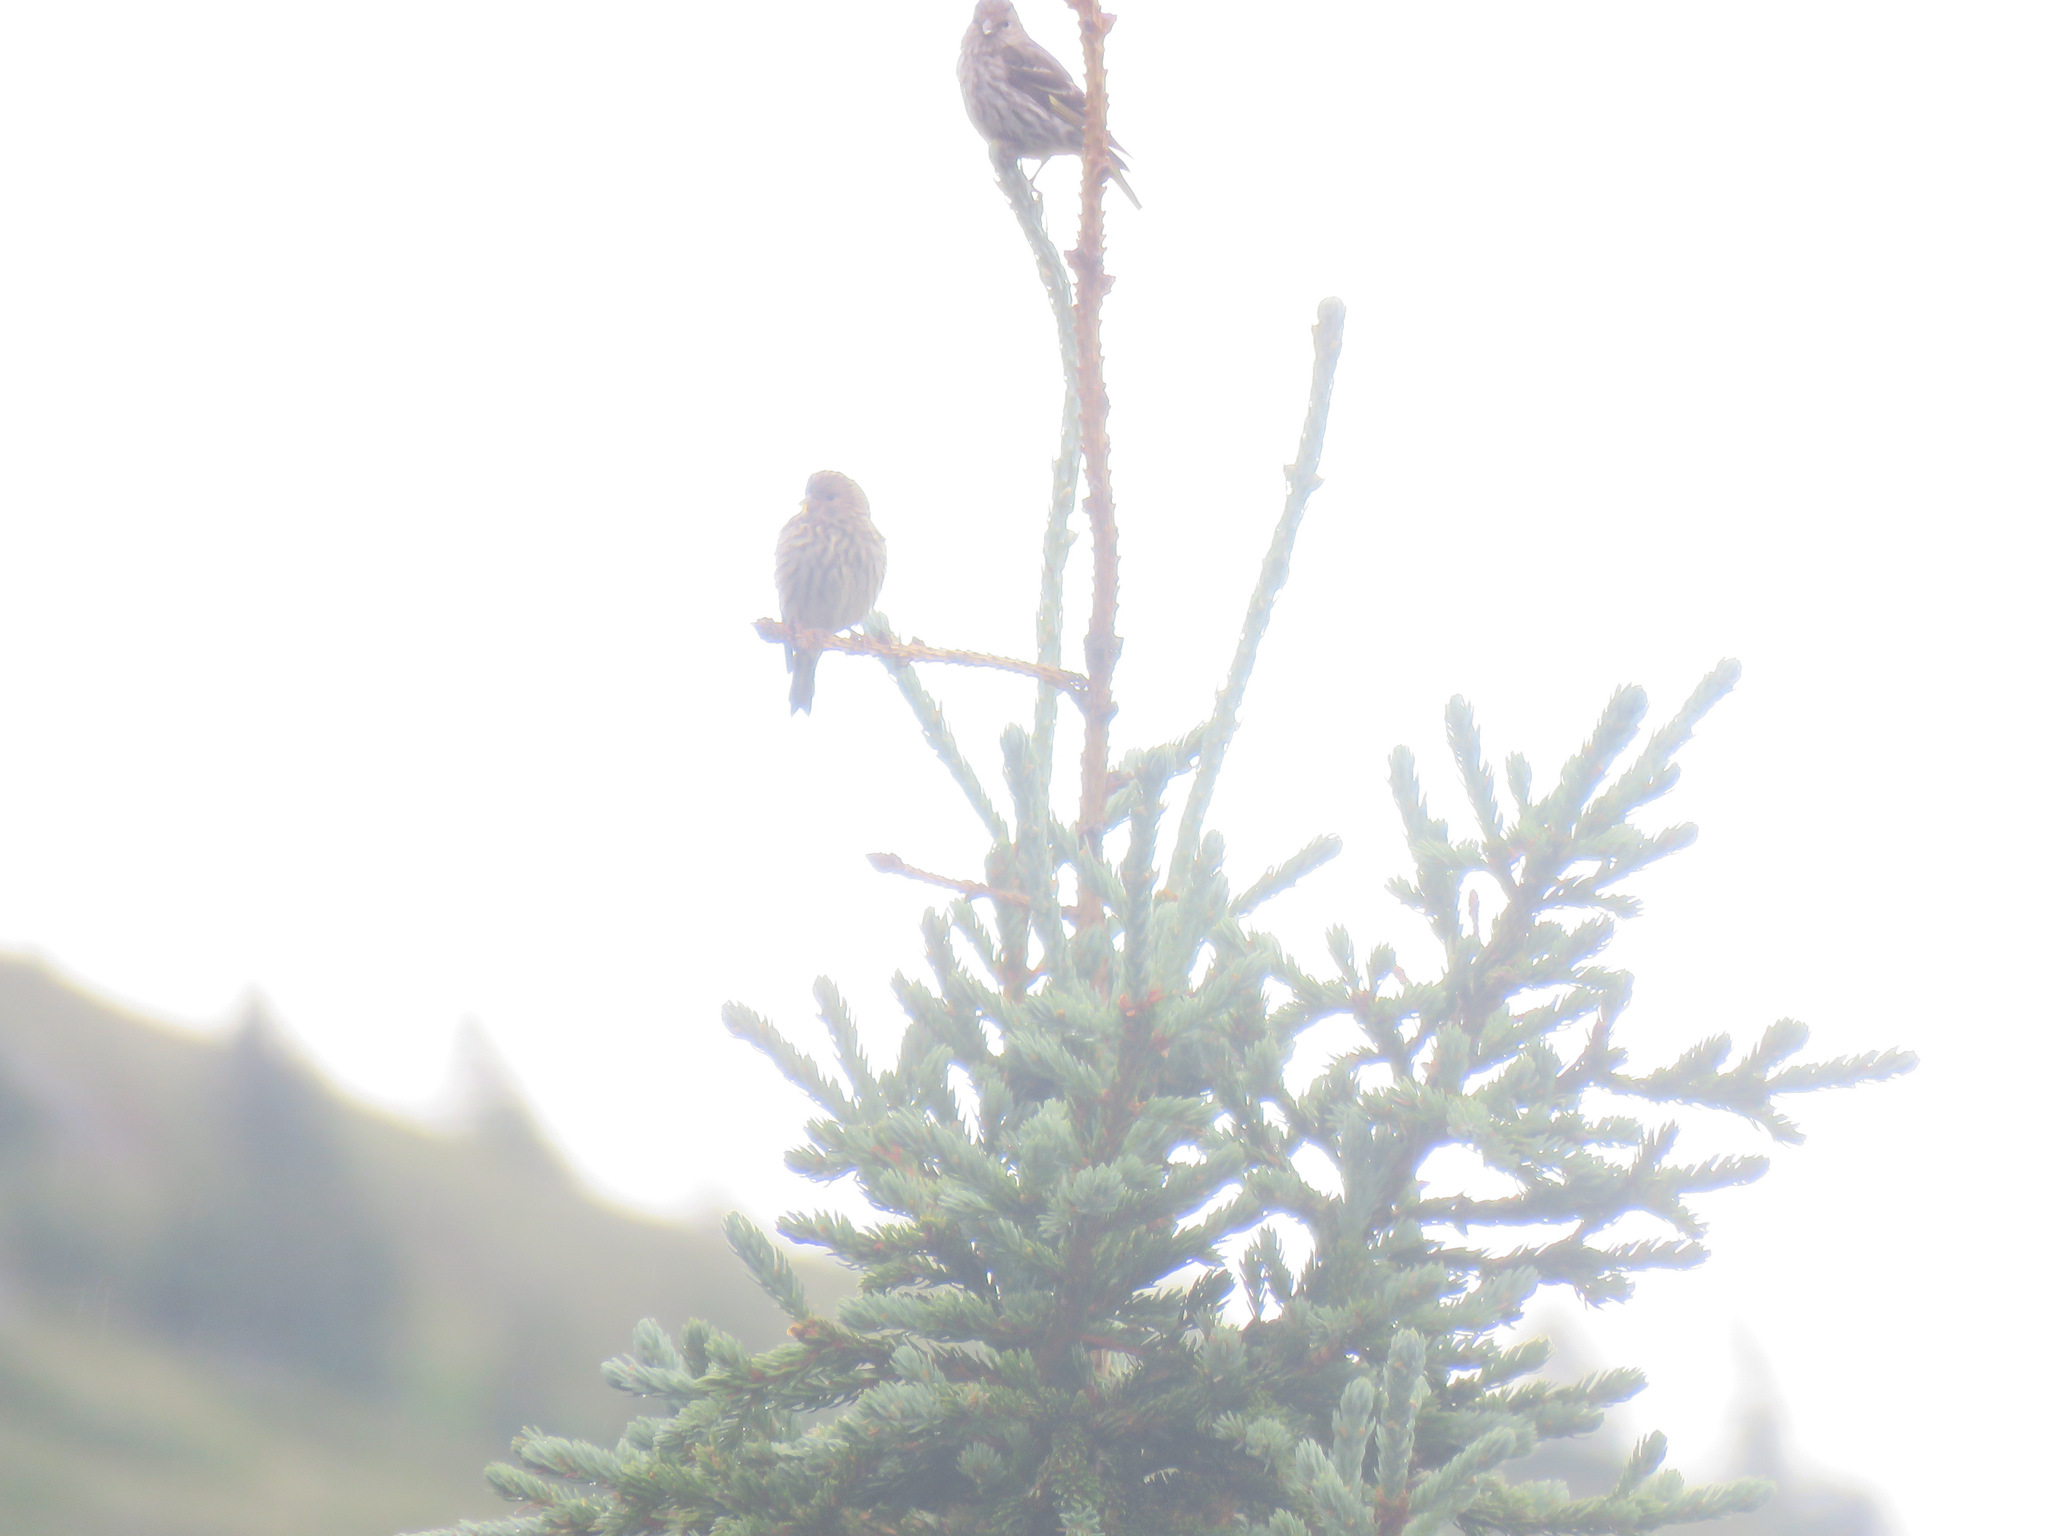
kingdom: Animalia
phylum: Chordata
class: Aves
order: Passeriformes
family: Fringillidae
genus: Spinus
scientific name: Spinus pinus
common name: Pine siskin
